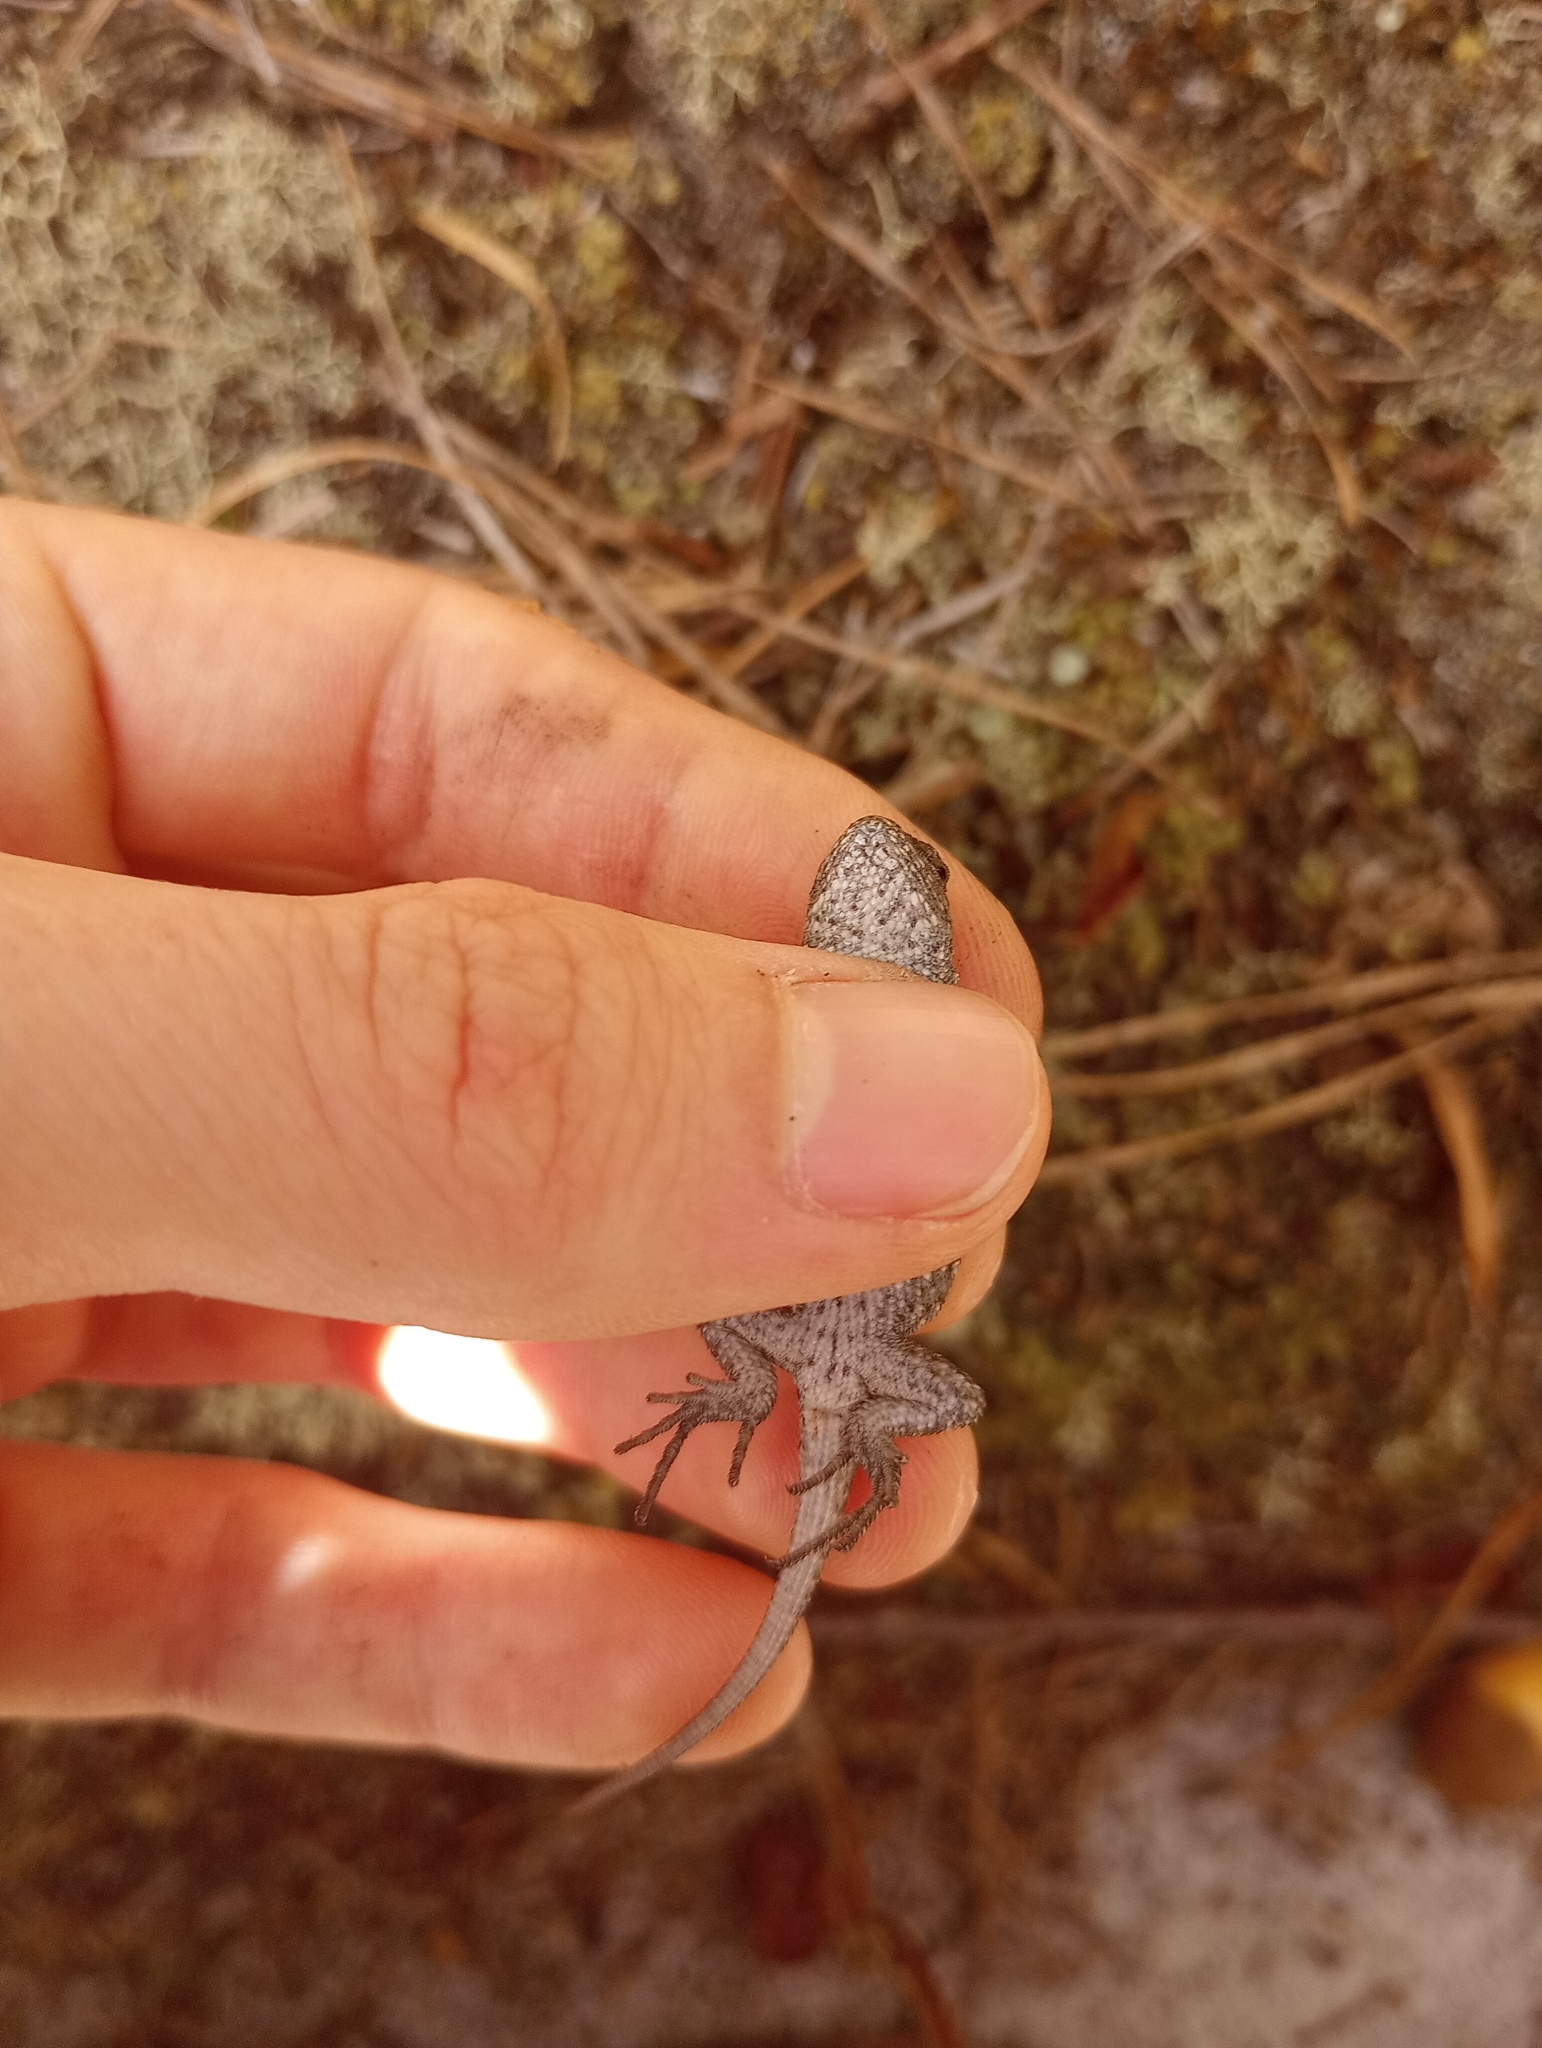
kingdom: Animalia
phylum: Chordata
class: Squamata
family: Phrynosomatidae
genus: Sceloporus
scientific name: Sceloporus undulatus
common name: Eastern fence lizard
